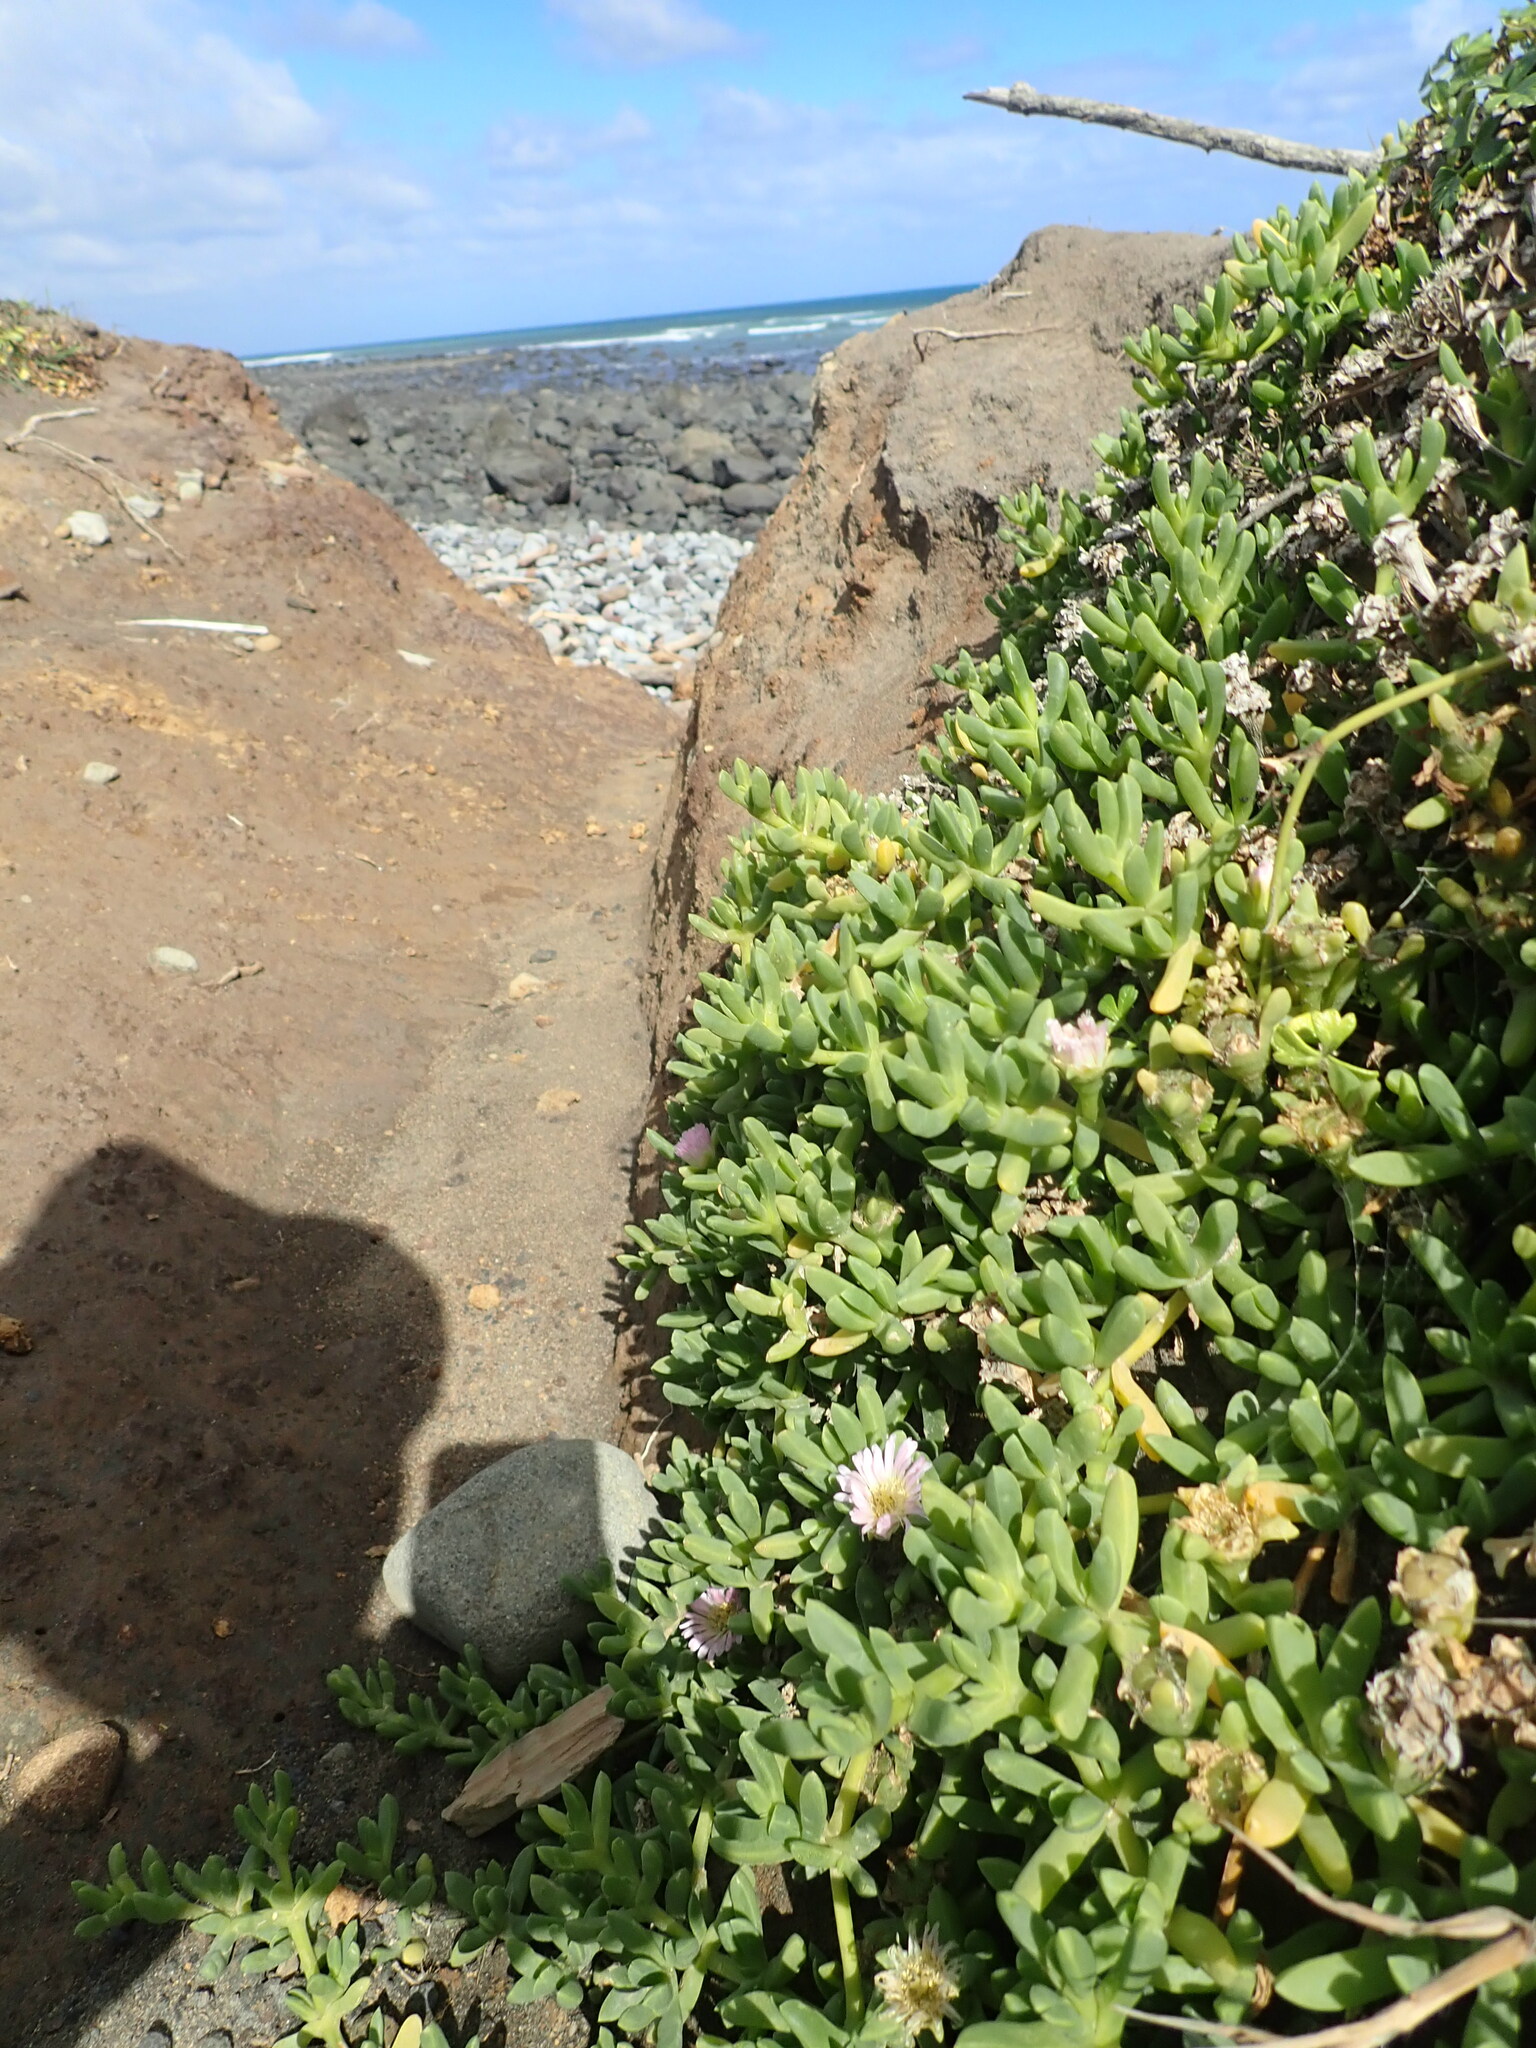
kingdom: Plantae
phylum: Tracheophyta
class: Magnoliopsida
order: Caryophyllales
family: Aizoaceae
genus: Disphyma
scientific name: Disphyma australe
